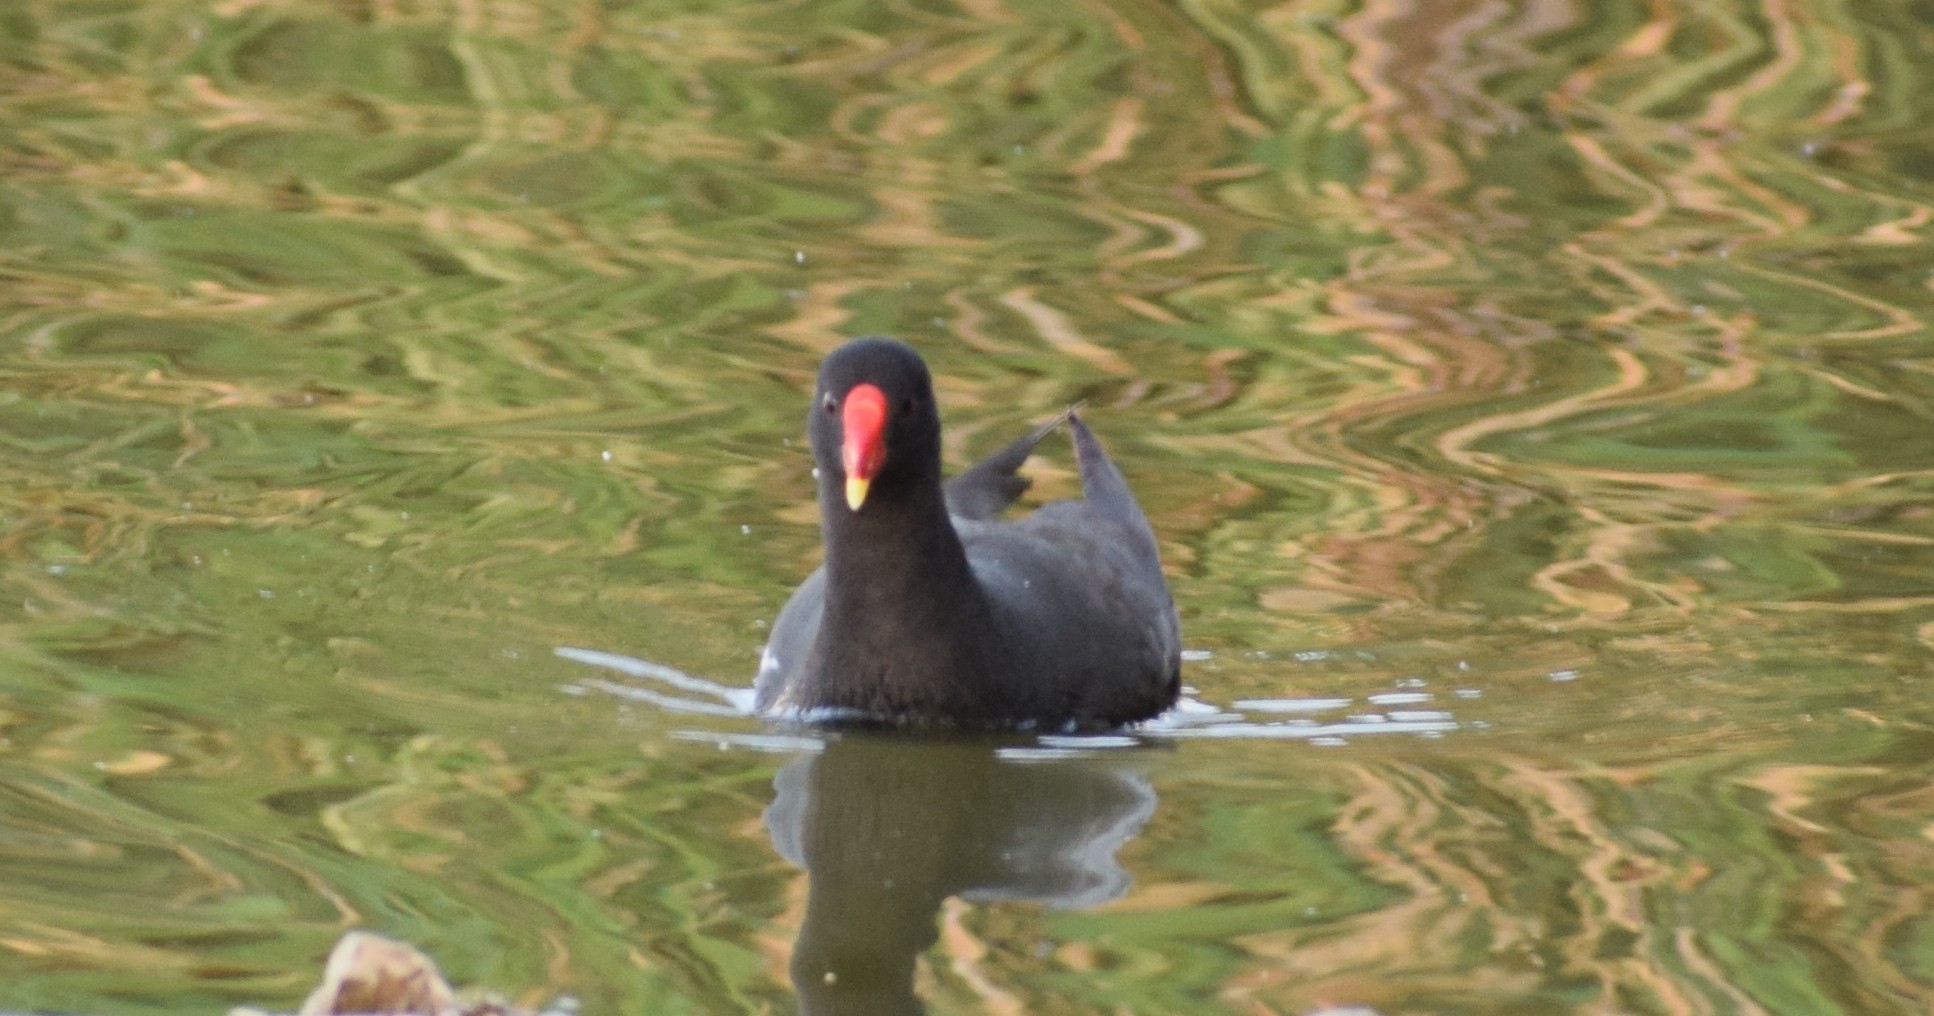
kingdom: Animalia
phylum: Chordata
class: Aves
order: Gruiformes
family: Rallidae
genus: Gallinula
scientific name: Gallinula chloropus
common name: Common moorhen
